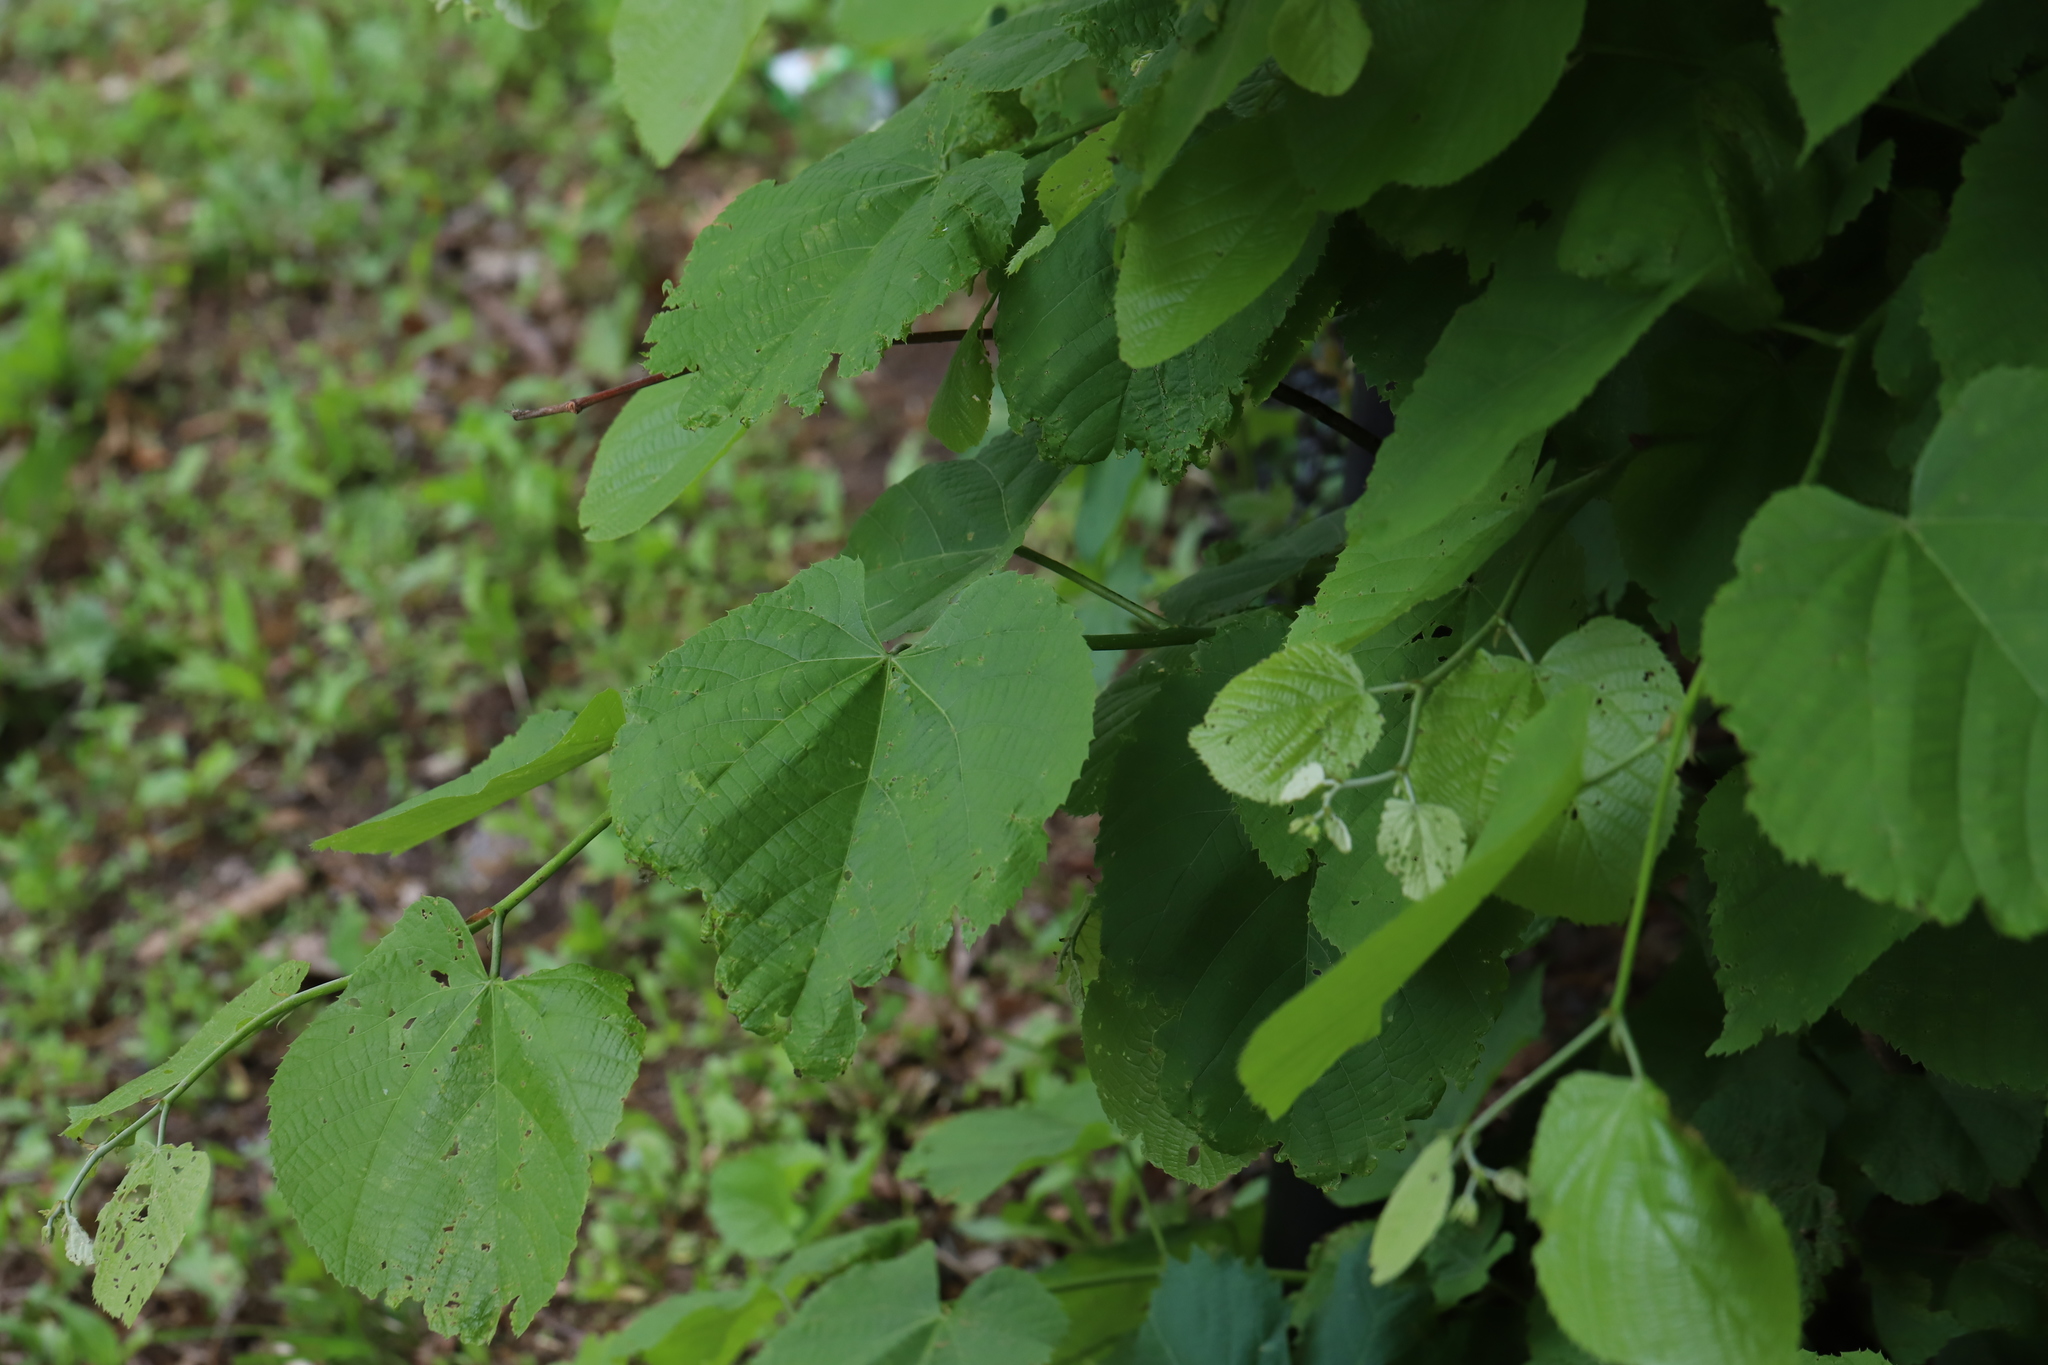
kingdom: Plantae
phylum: Tracheophyta
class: Magnoliopsida
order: Malvales
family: Malvaceae
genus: Tilia
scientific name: Tilia americana
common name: Basswood
